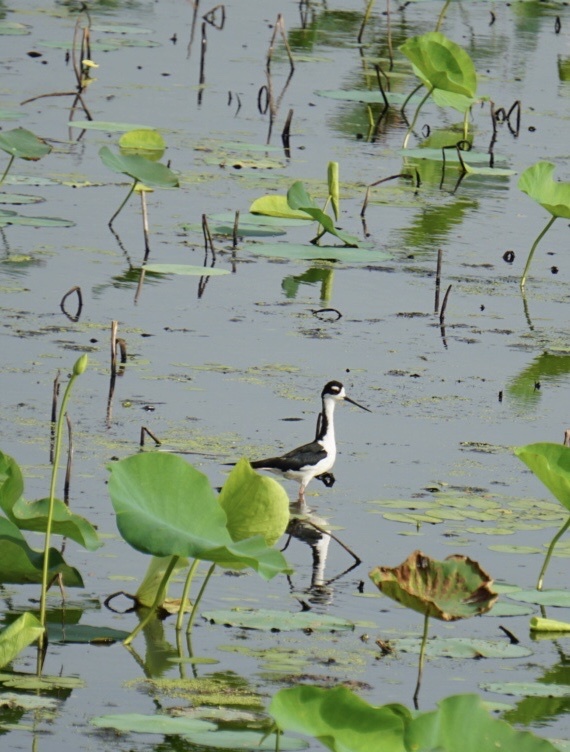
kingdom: Animalia
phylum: Chordata
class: Aves
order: Charadriiformes
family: Recurvirostridae
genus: Himantopus
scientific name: Himantopus mexicanus
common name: Black-necked stilt
